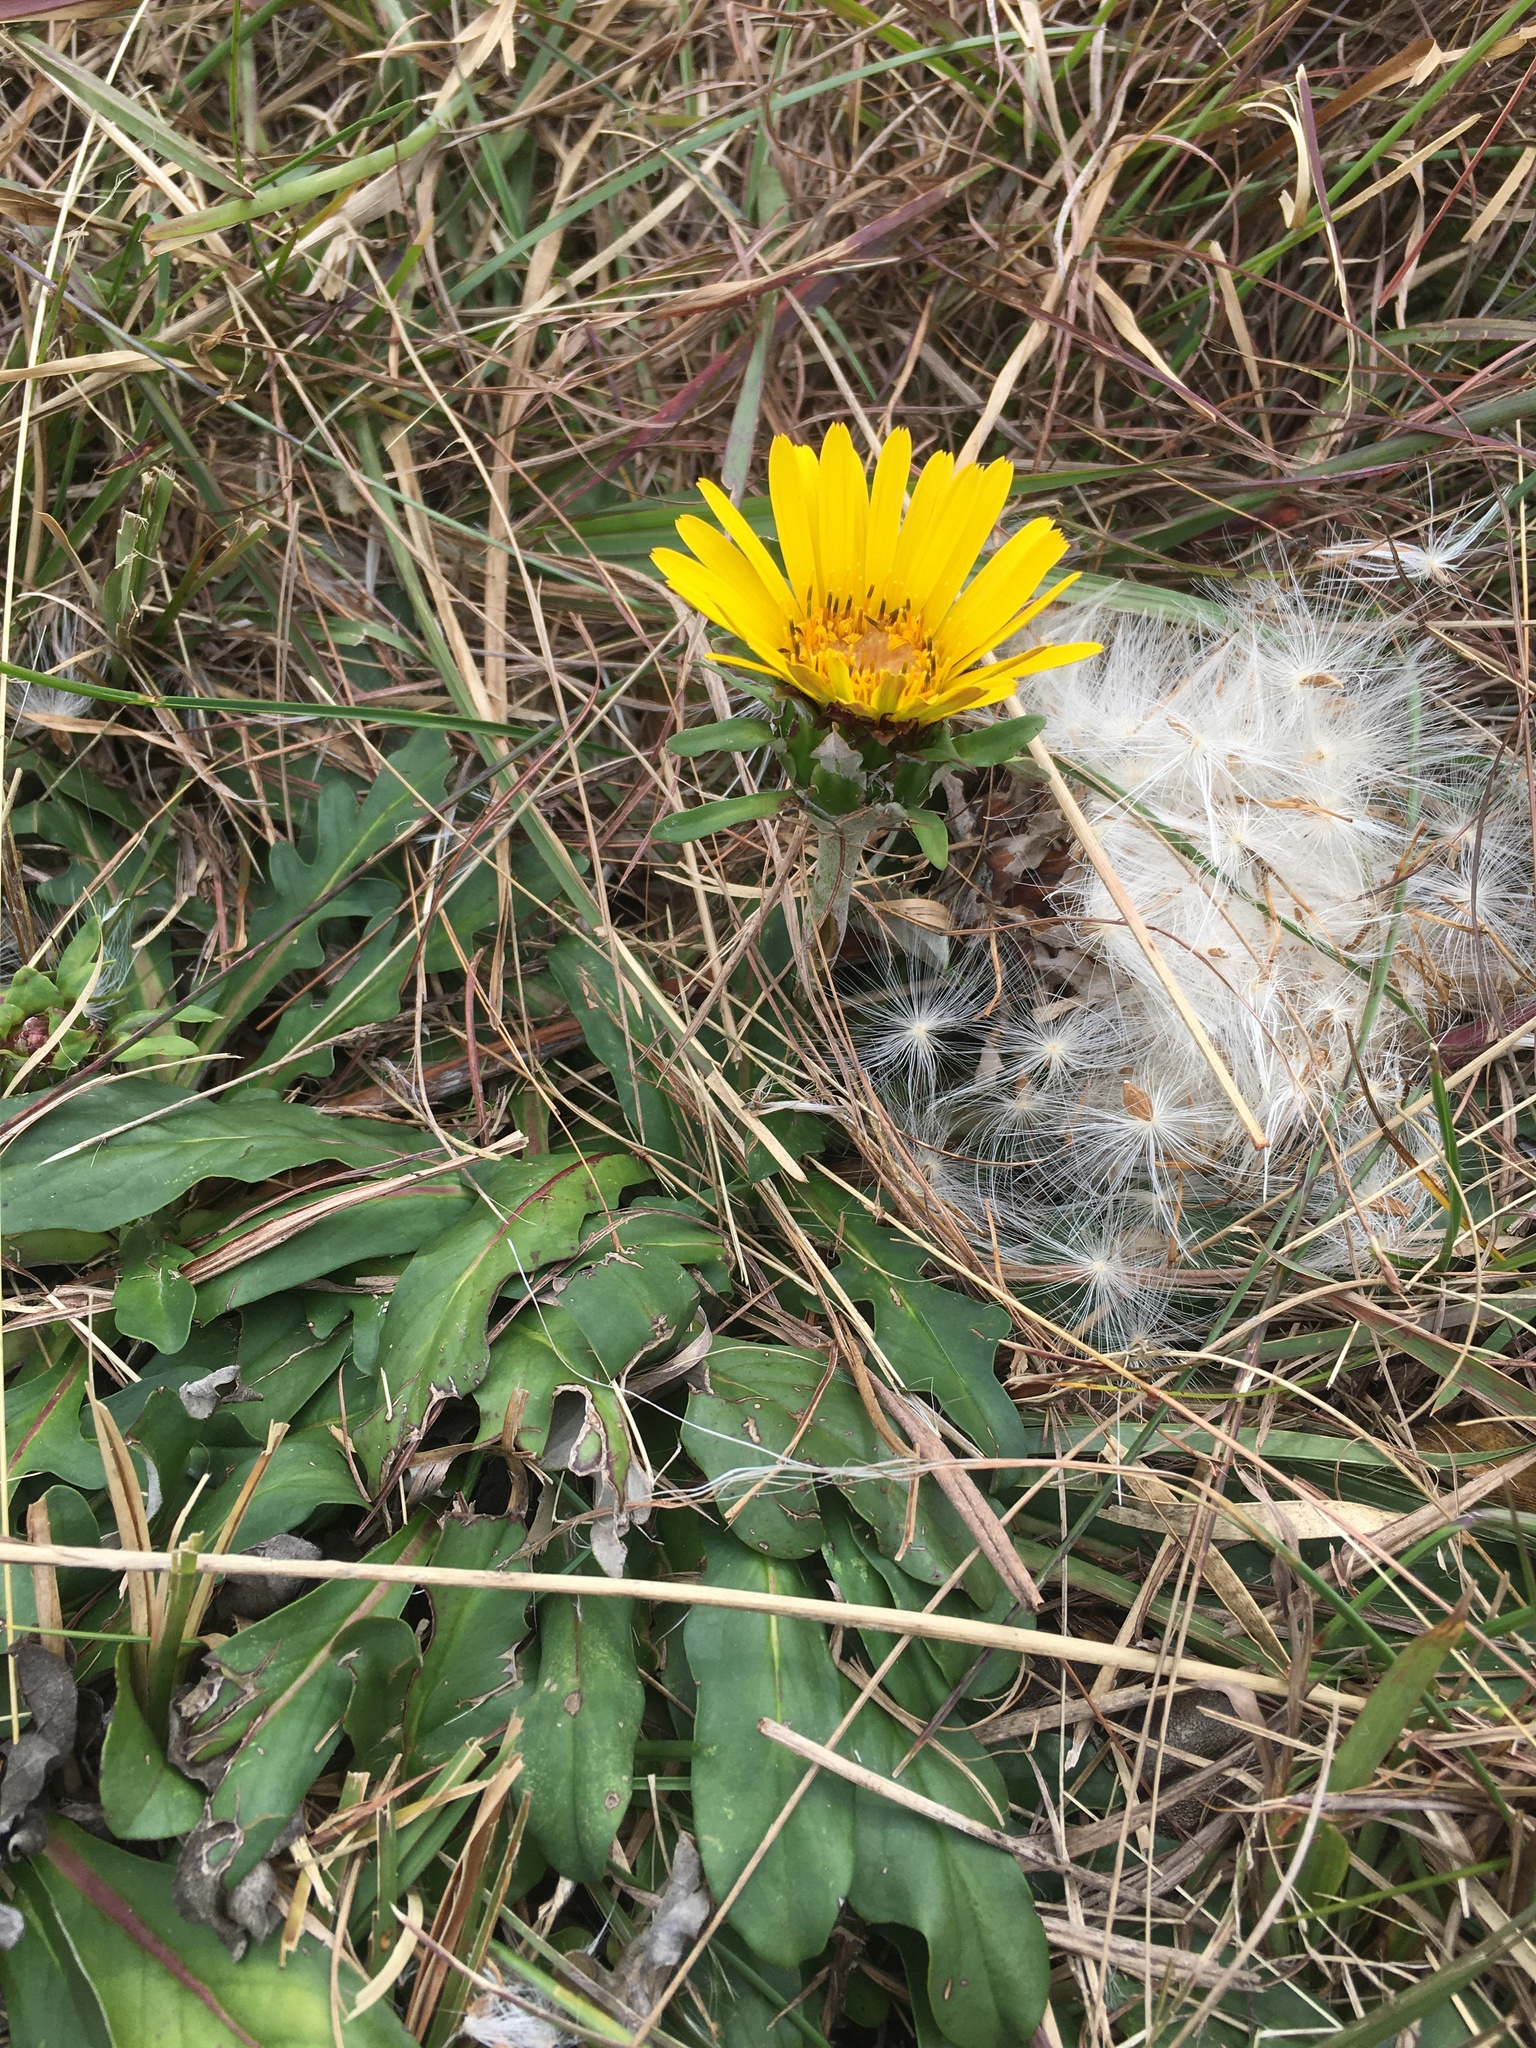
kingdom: Plantae
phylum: Tracheophyta
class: Magnoliopsida
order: Asterales
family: Asteraceae
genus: Trichocline
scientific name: Trichocline catharinensis
